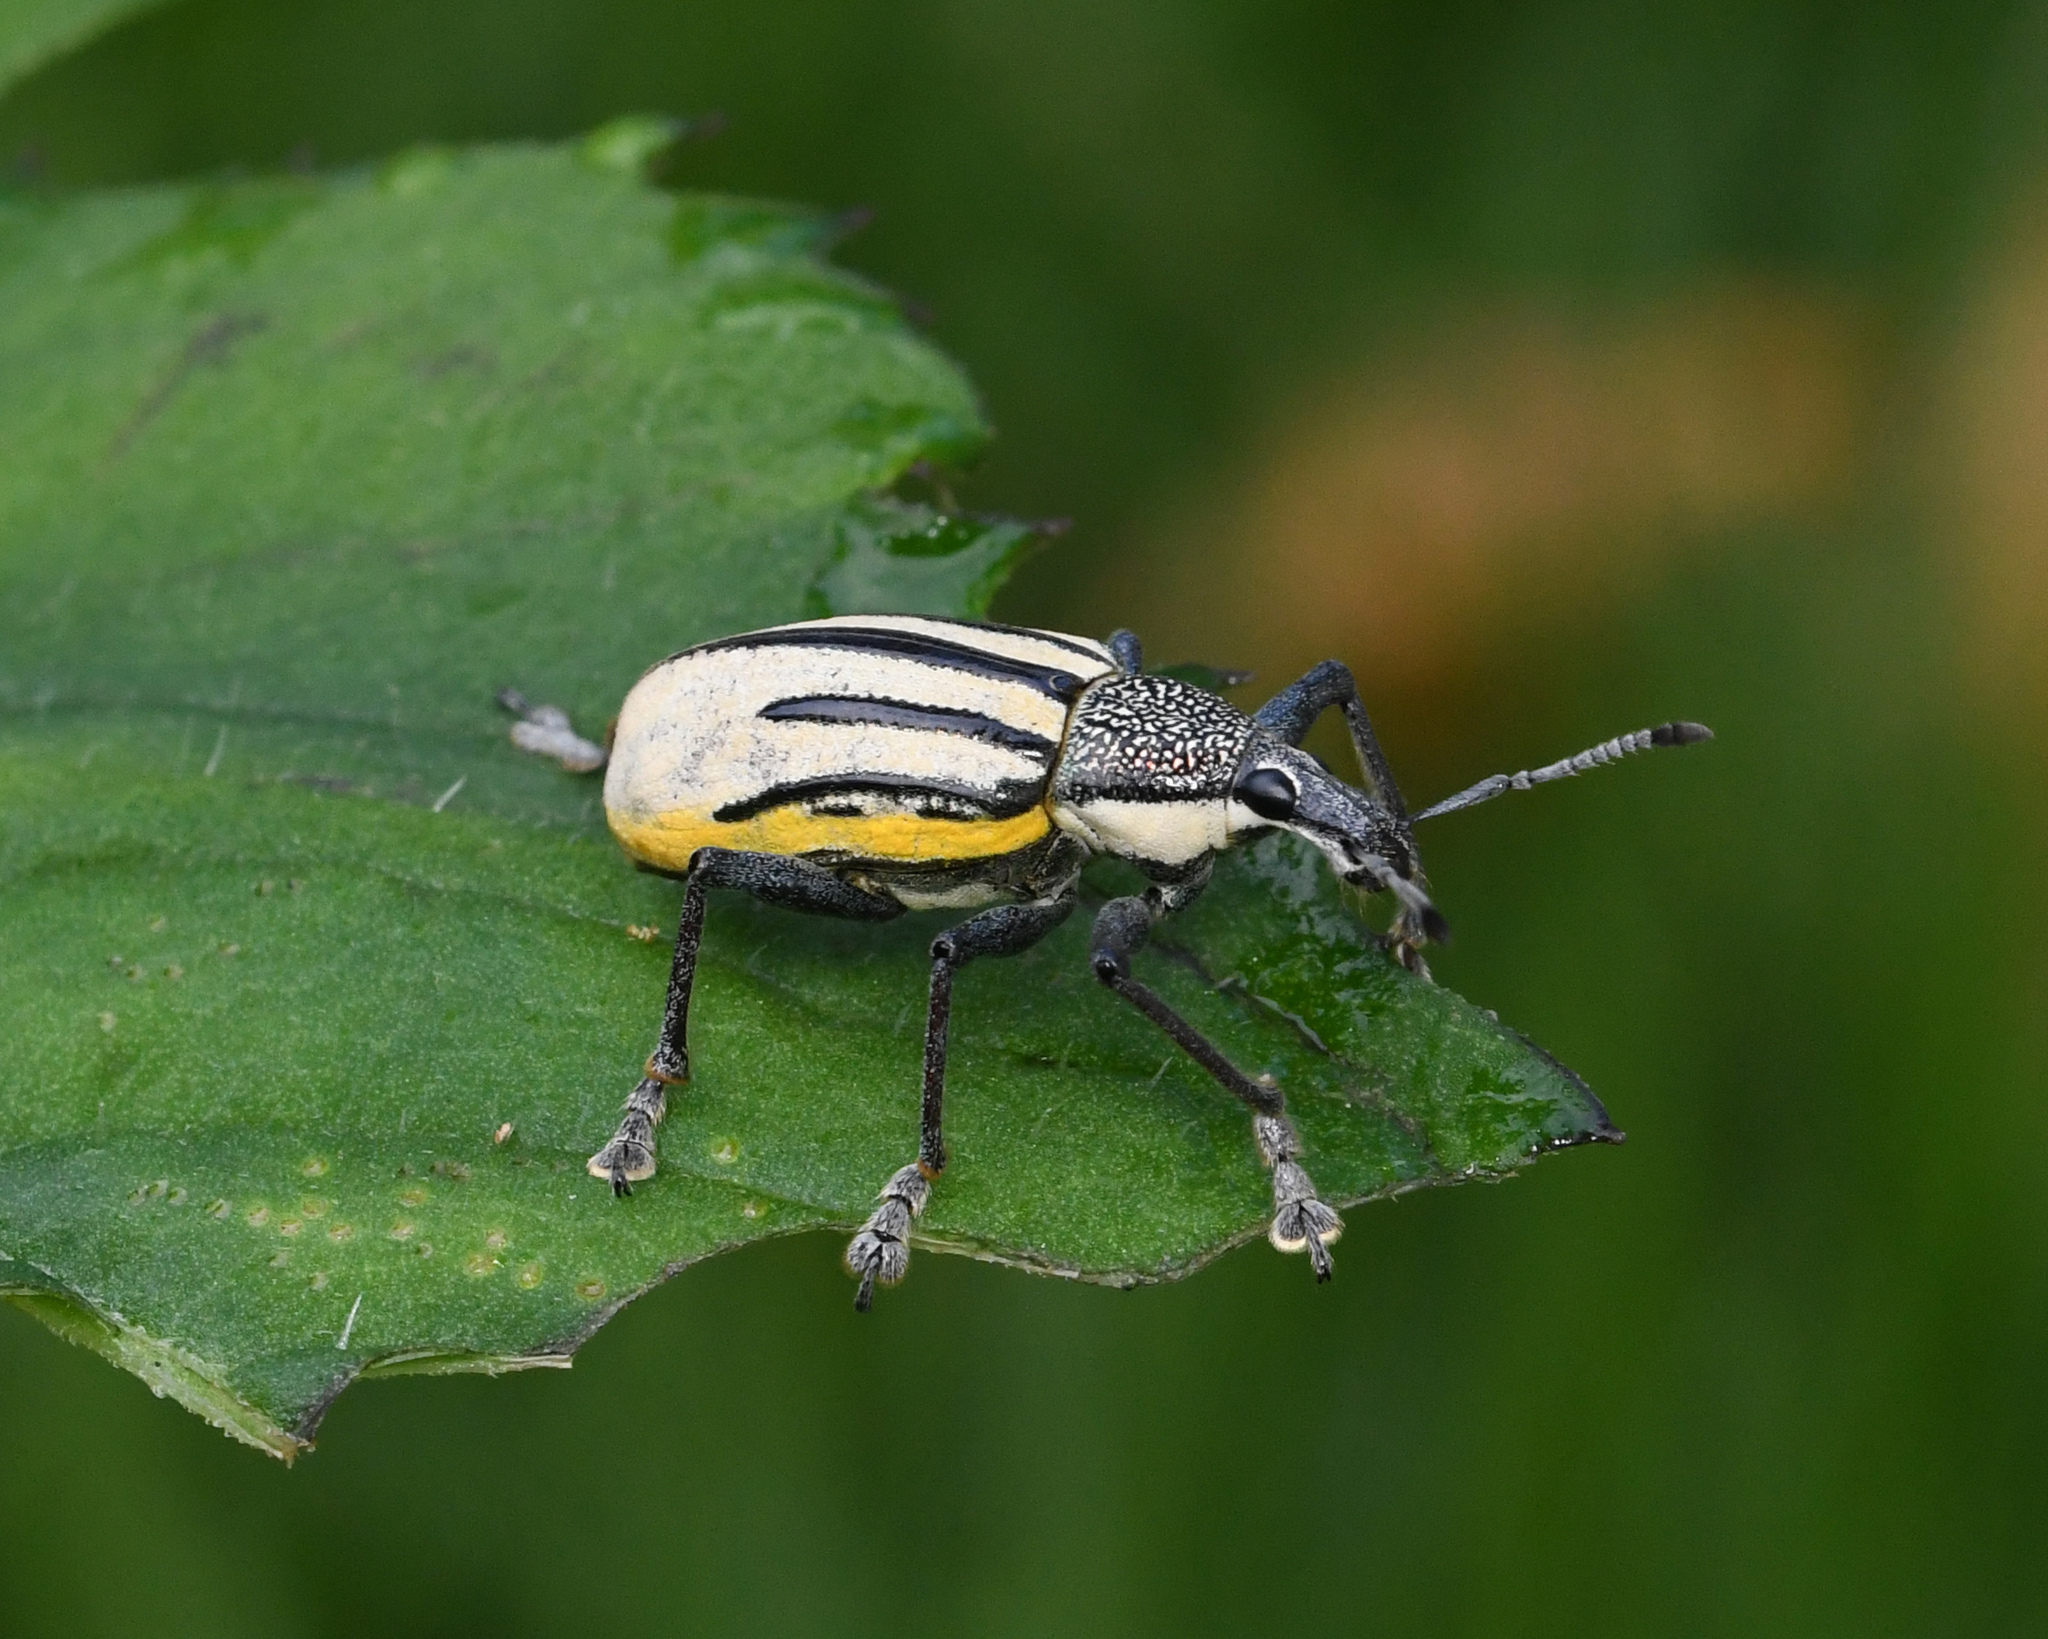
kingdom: Animalia
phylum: Arthropoda
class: Insecta
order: Coleoptera
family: Curculionidae
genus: Diaprepes
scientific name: Diaprepes abbreviatus
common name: Root weevil
